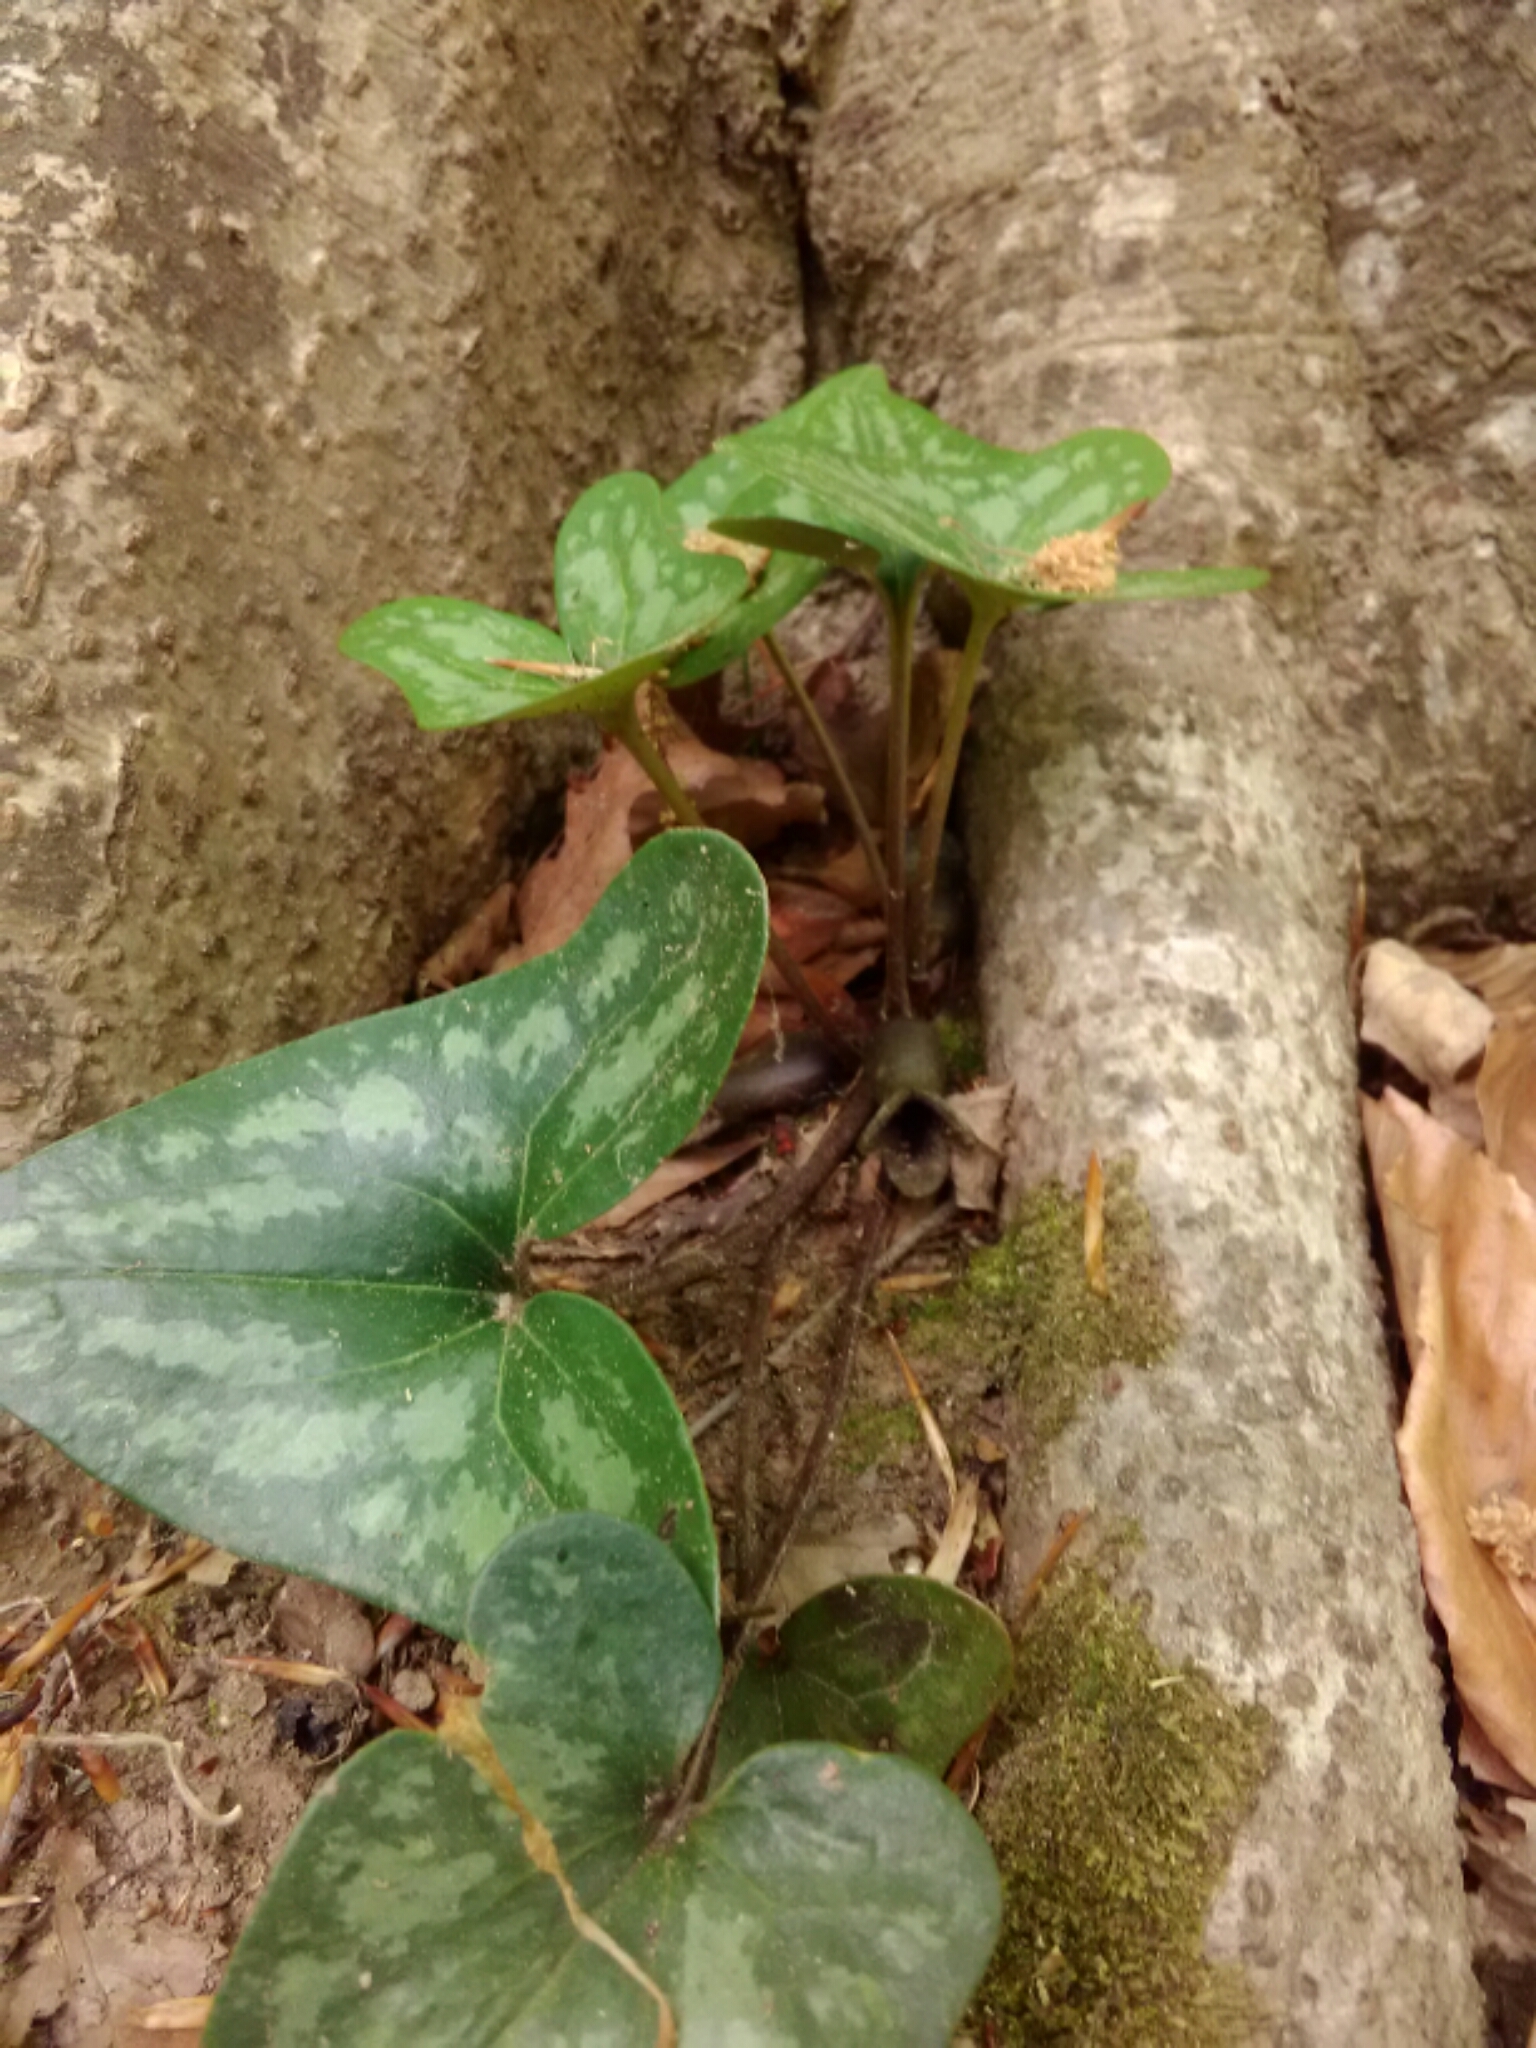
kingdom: Plantae
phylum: Tracheophyta
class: Magnoliopsida
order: Piperales
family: Aristolochiaceae
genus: Hexastylis
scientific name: Hexastylis arifolia
